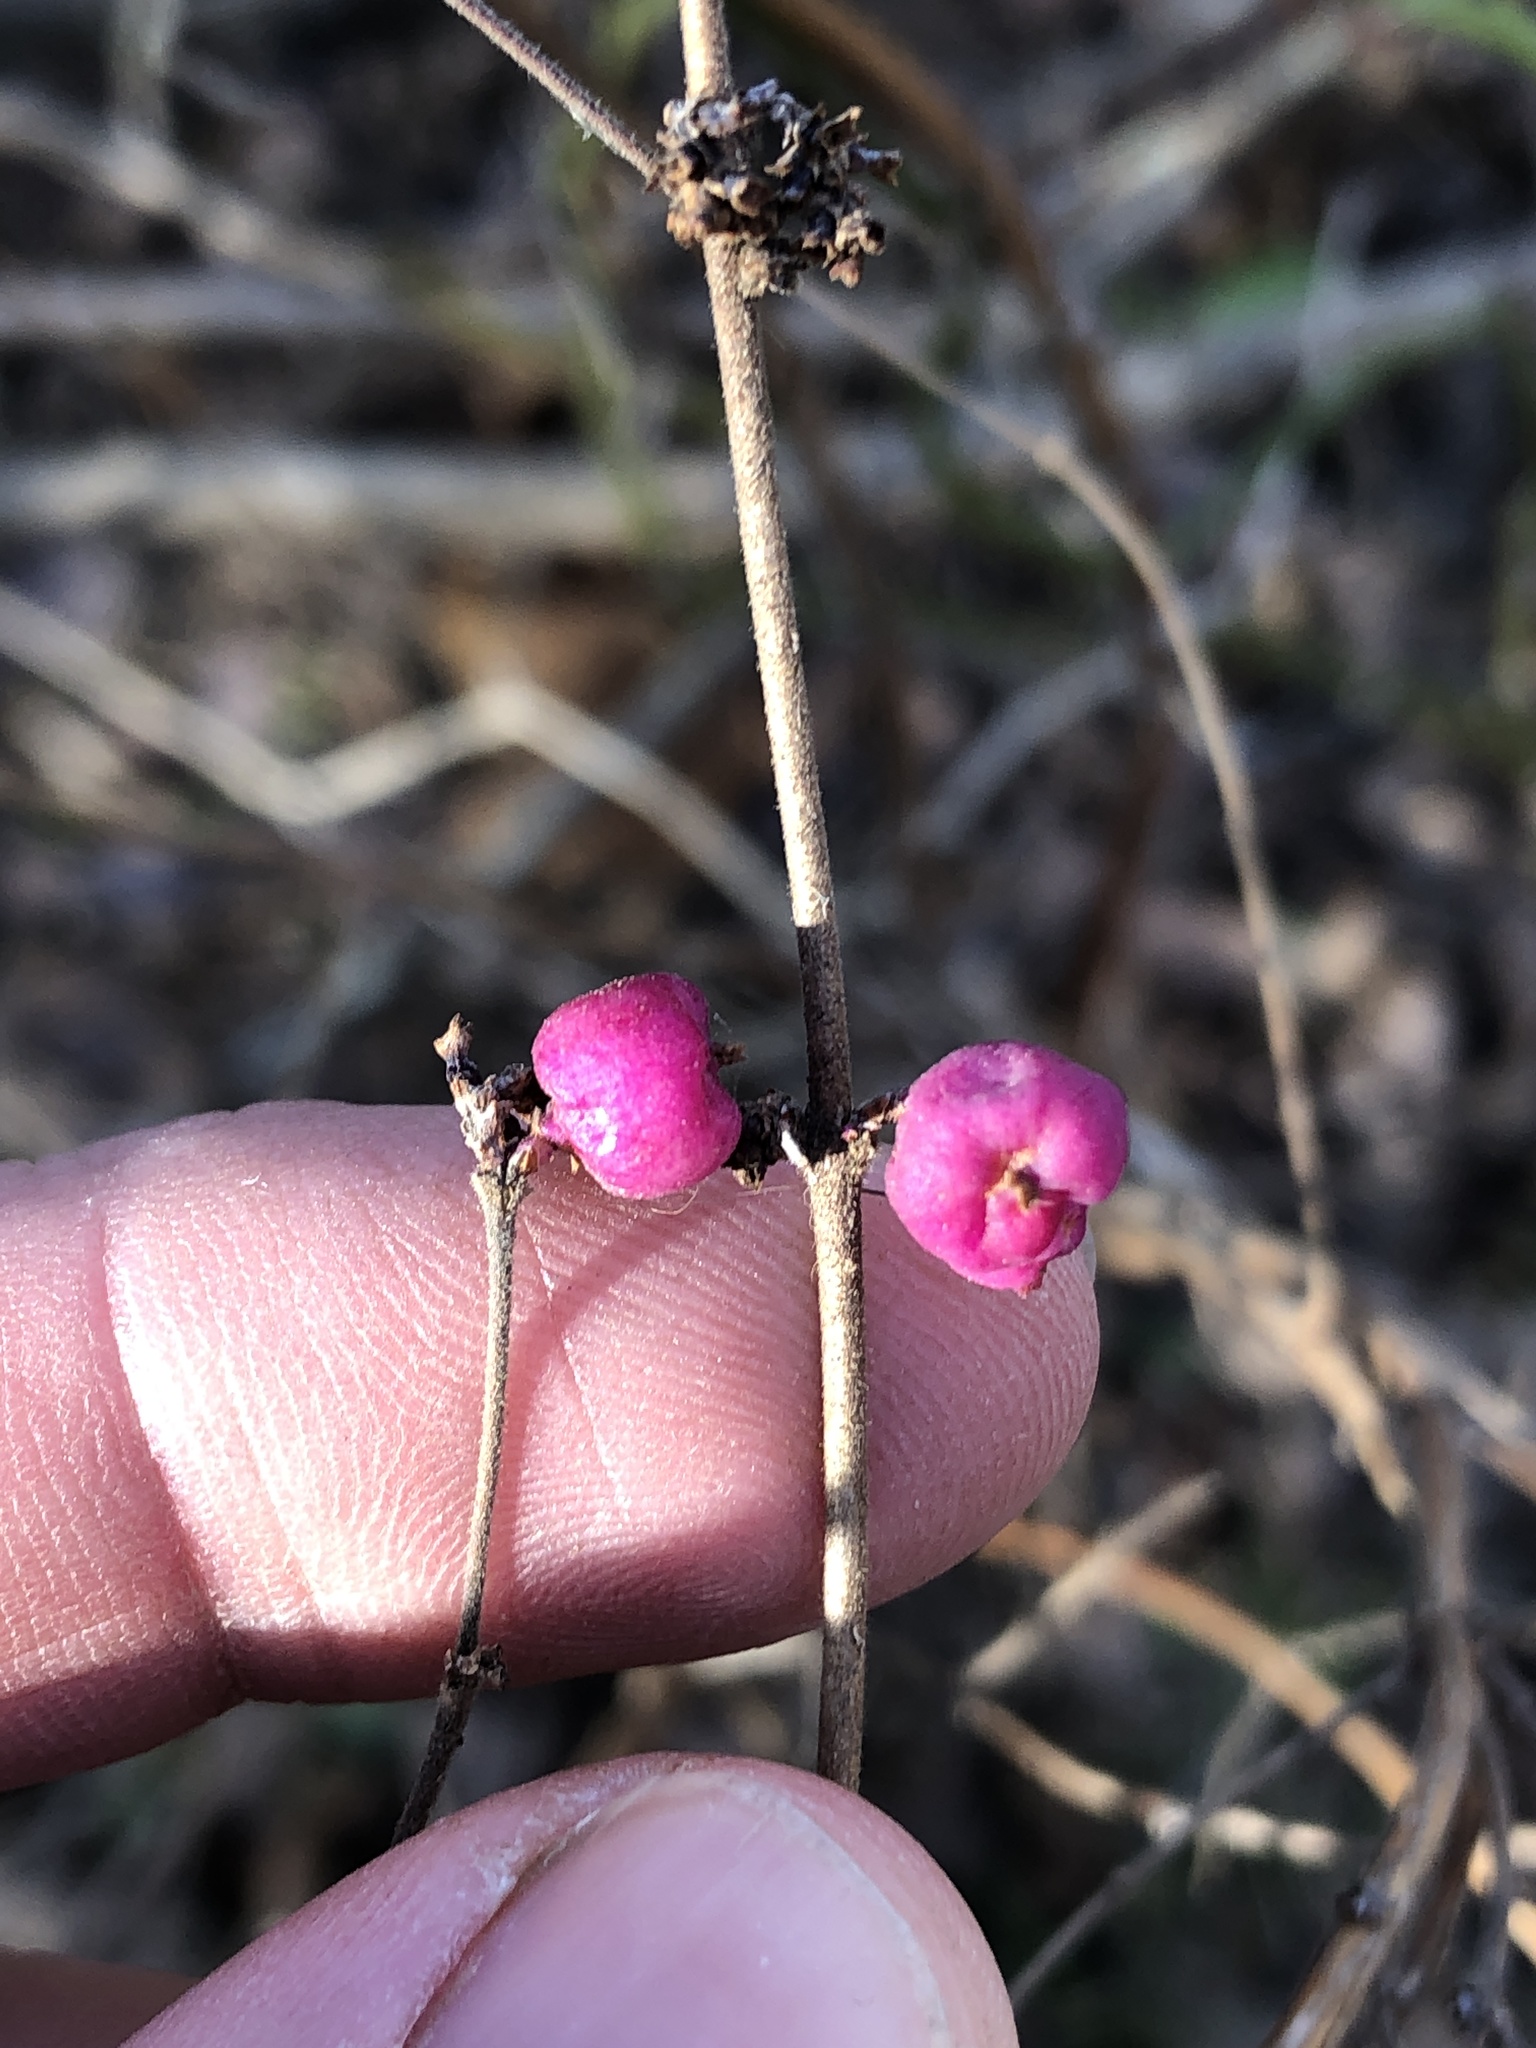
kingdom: Plantae
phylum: Tracheophyta
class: Magnoliopsida
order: Dipsacales
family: Caprifoliaceae
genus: Symphoricarpos
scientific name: Symphoricarpos orbiculatus
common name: Coralberry
